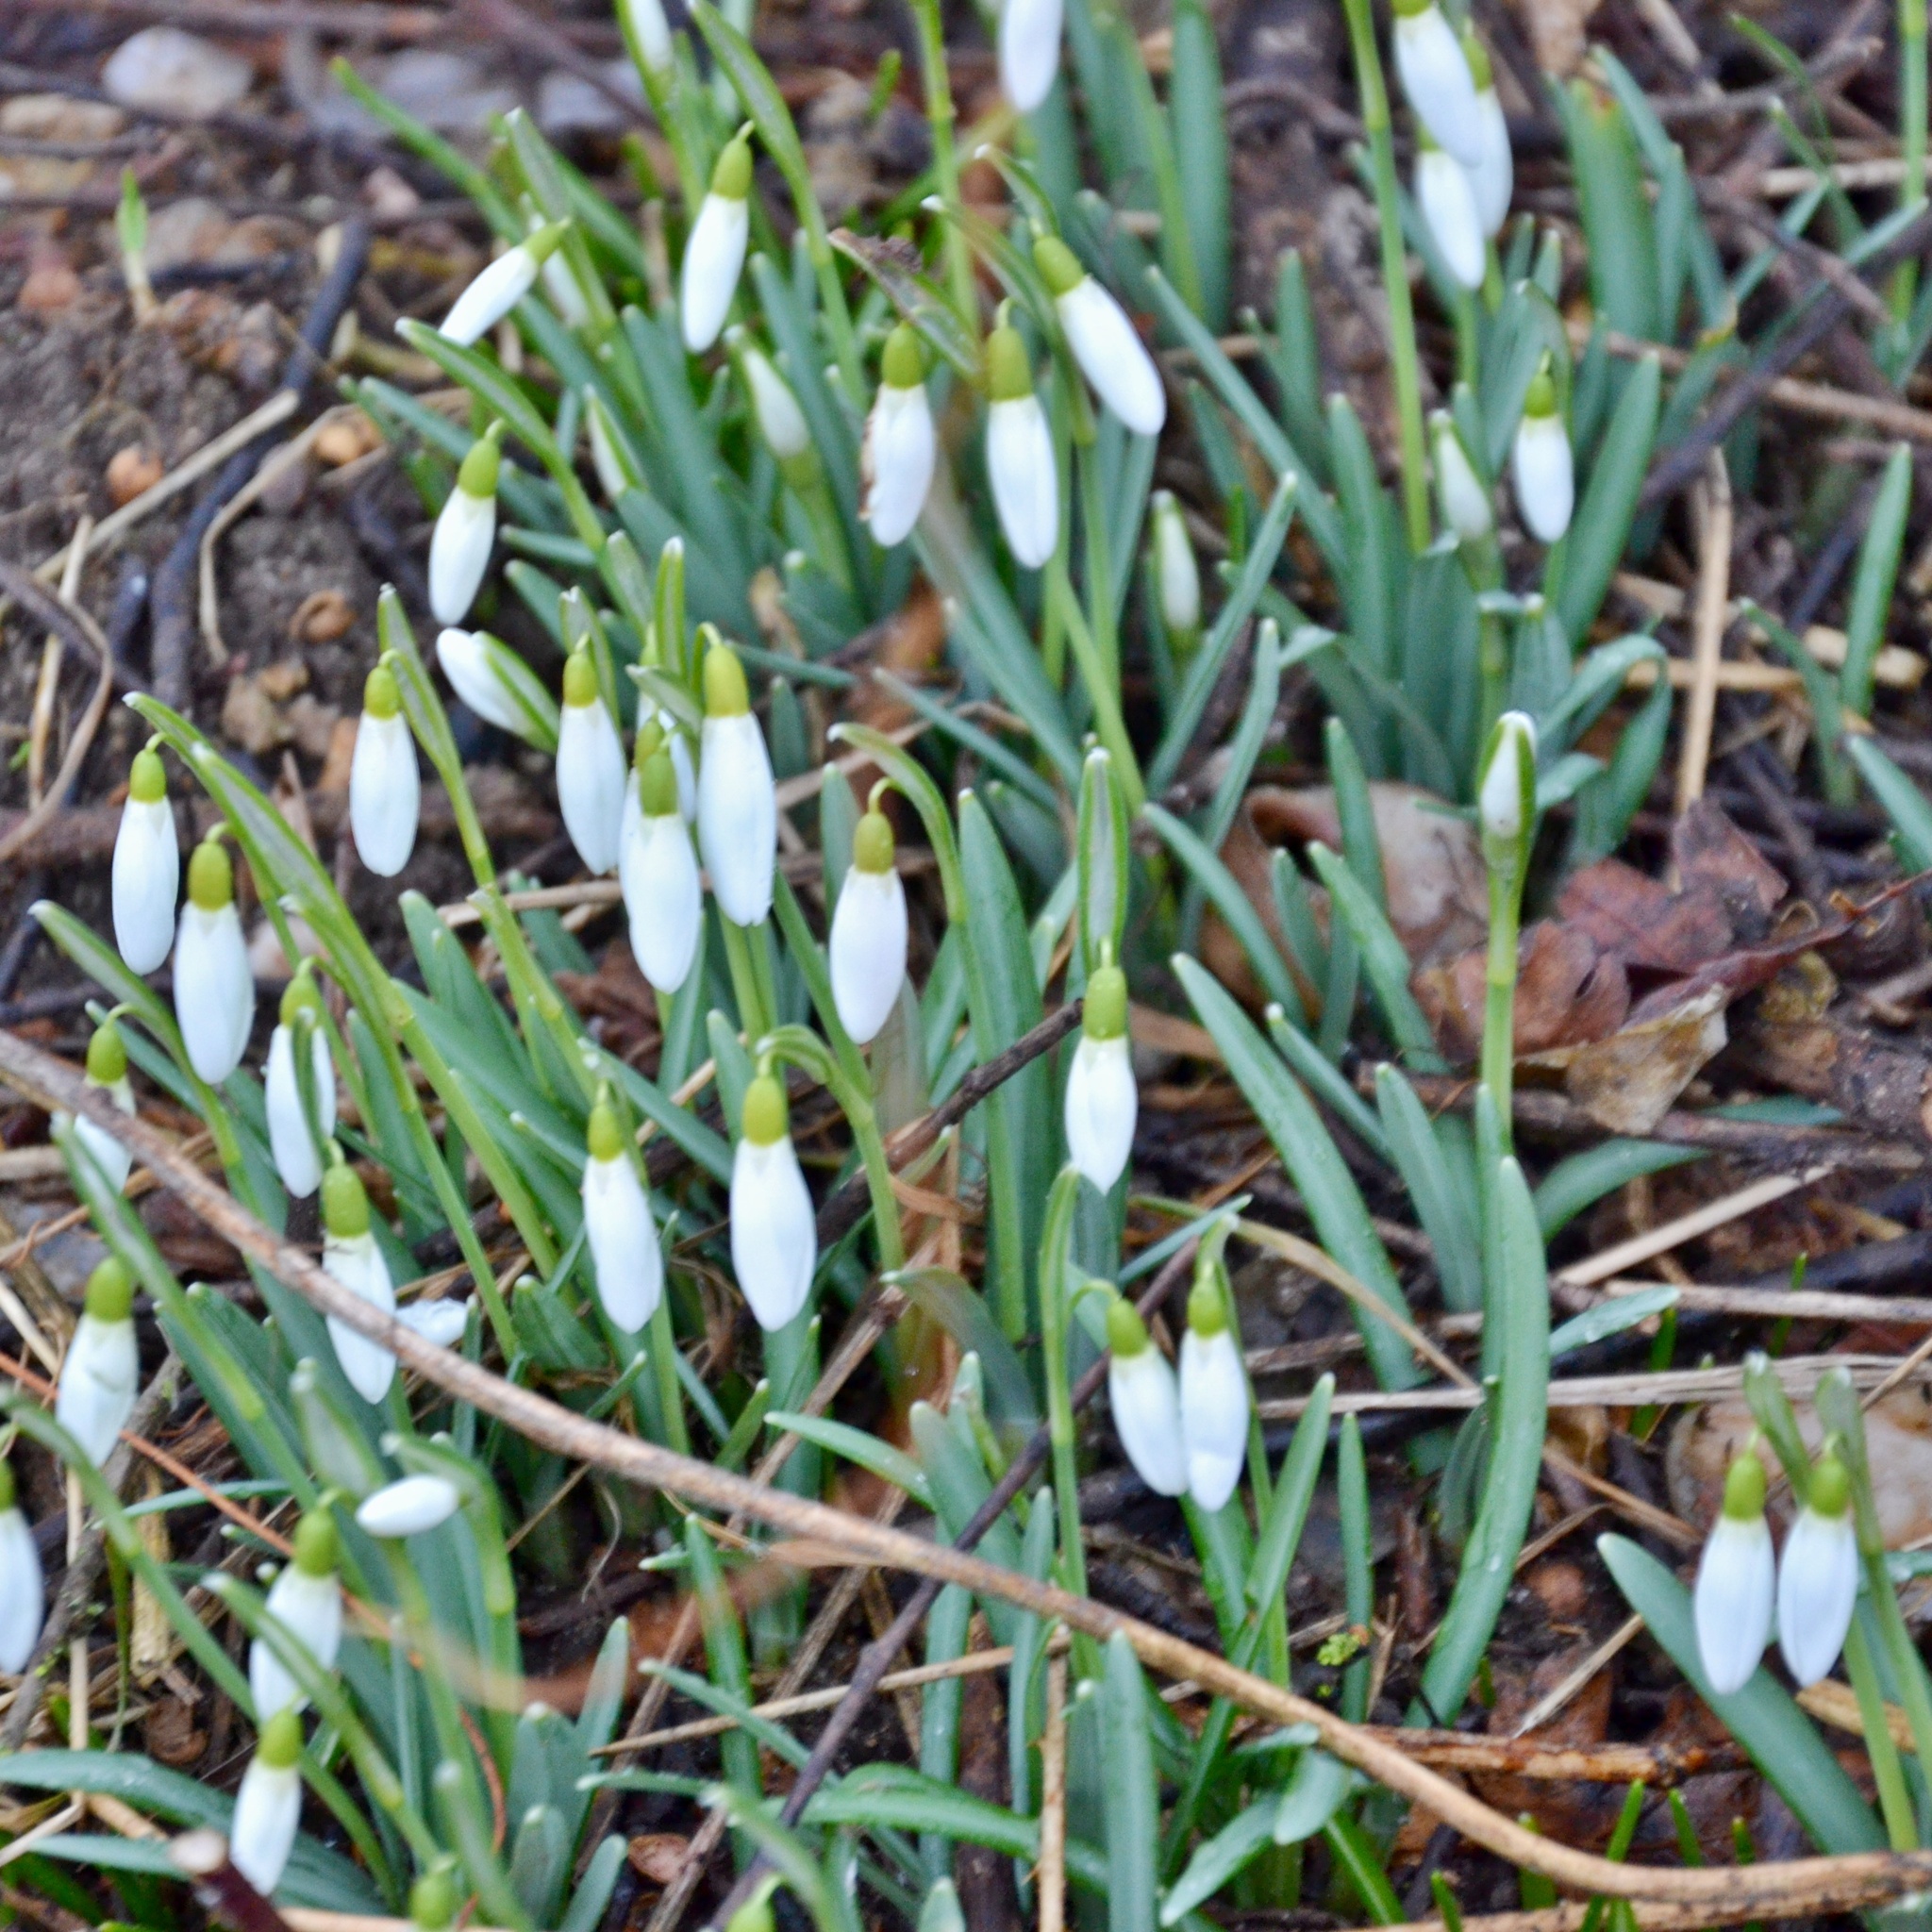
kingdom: Plantae
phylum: Tracheophyta
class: Liliopsida
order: Asparagales
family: Amaryllidaceae
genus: Galanthus
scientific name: Galanthus nivalis
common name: Snowdrop
